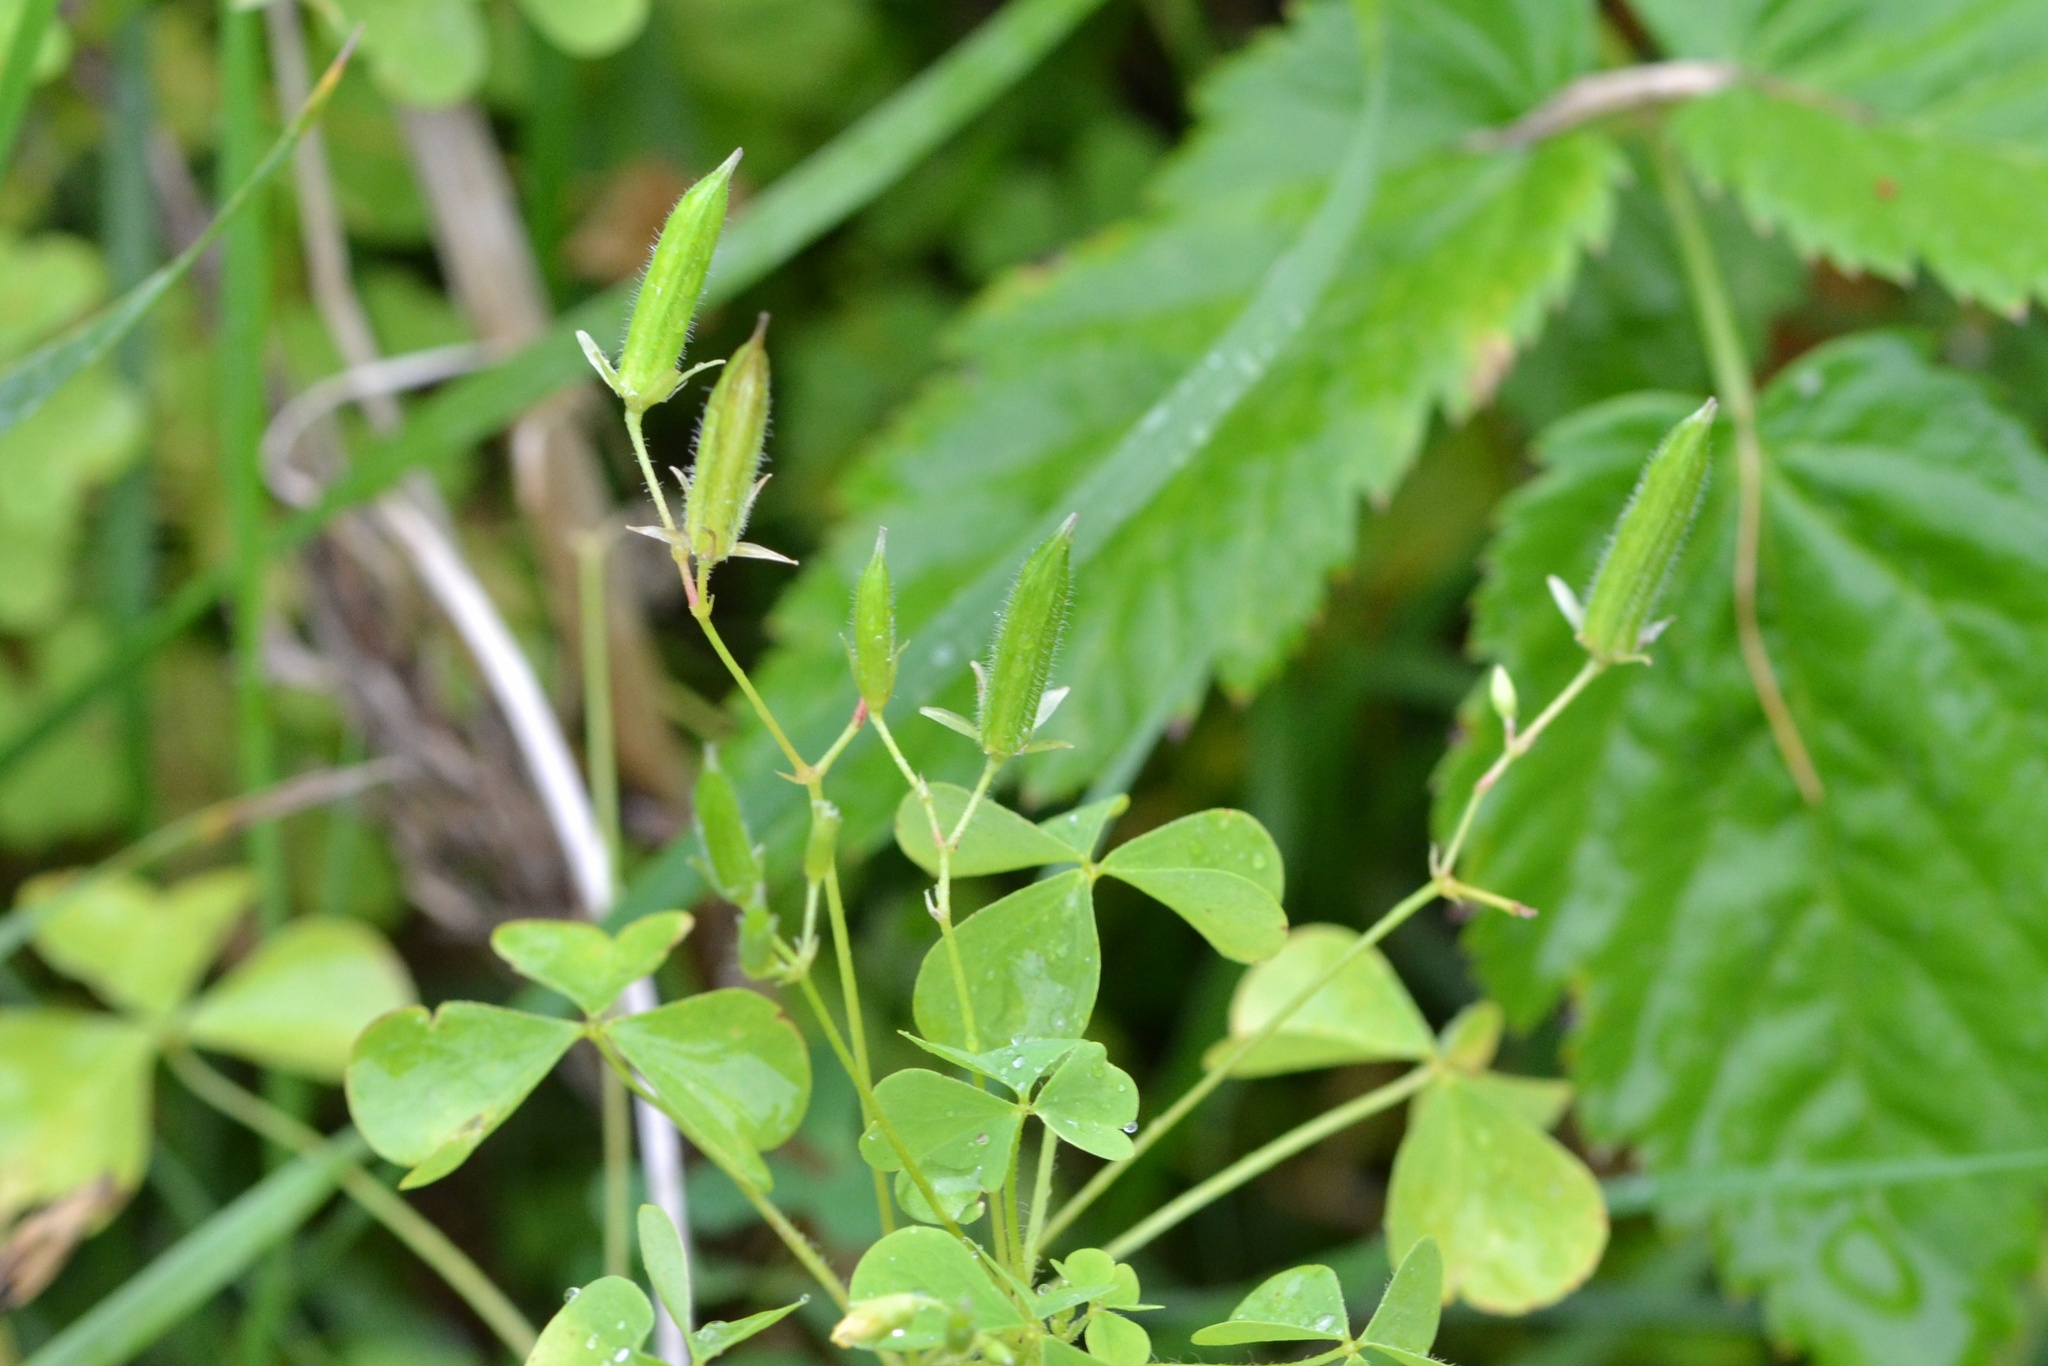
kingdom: Plantae
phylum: Tracheophyta
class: Magnoliopsida
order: Oxalidales
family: Oxalidaceae
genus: Oxalis
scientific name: Oxalis stricta
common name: Upright yellow-sorrel
